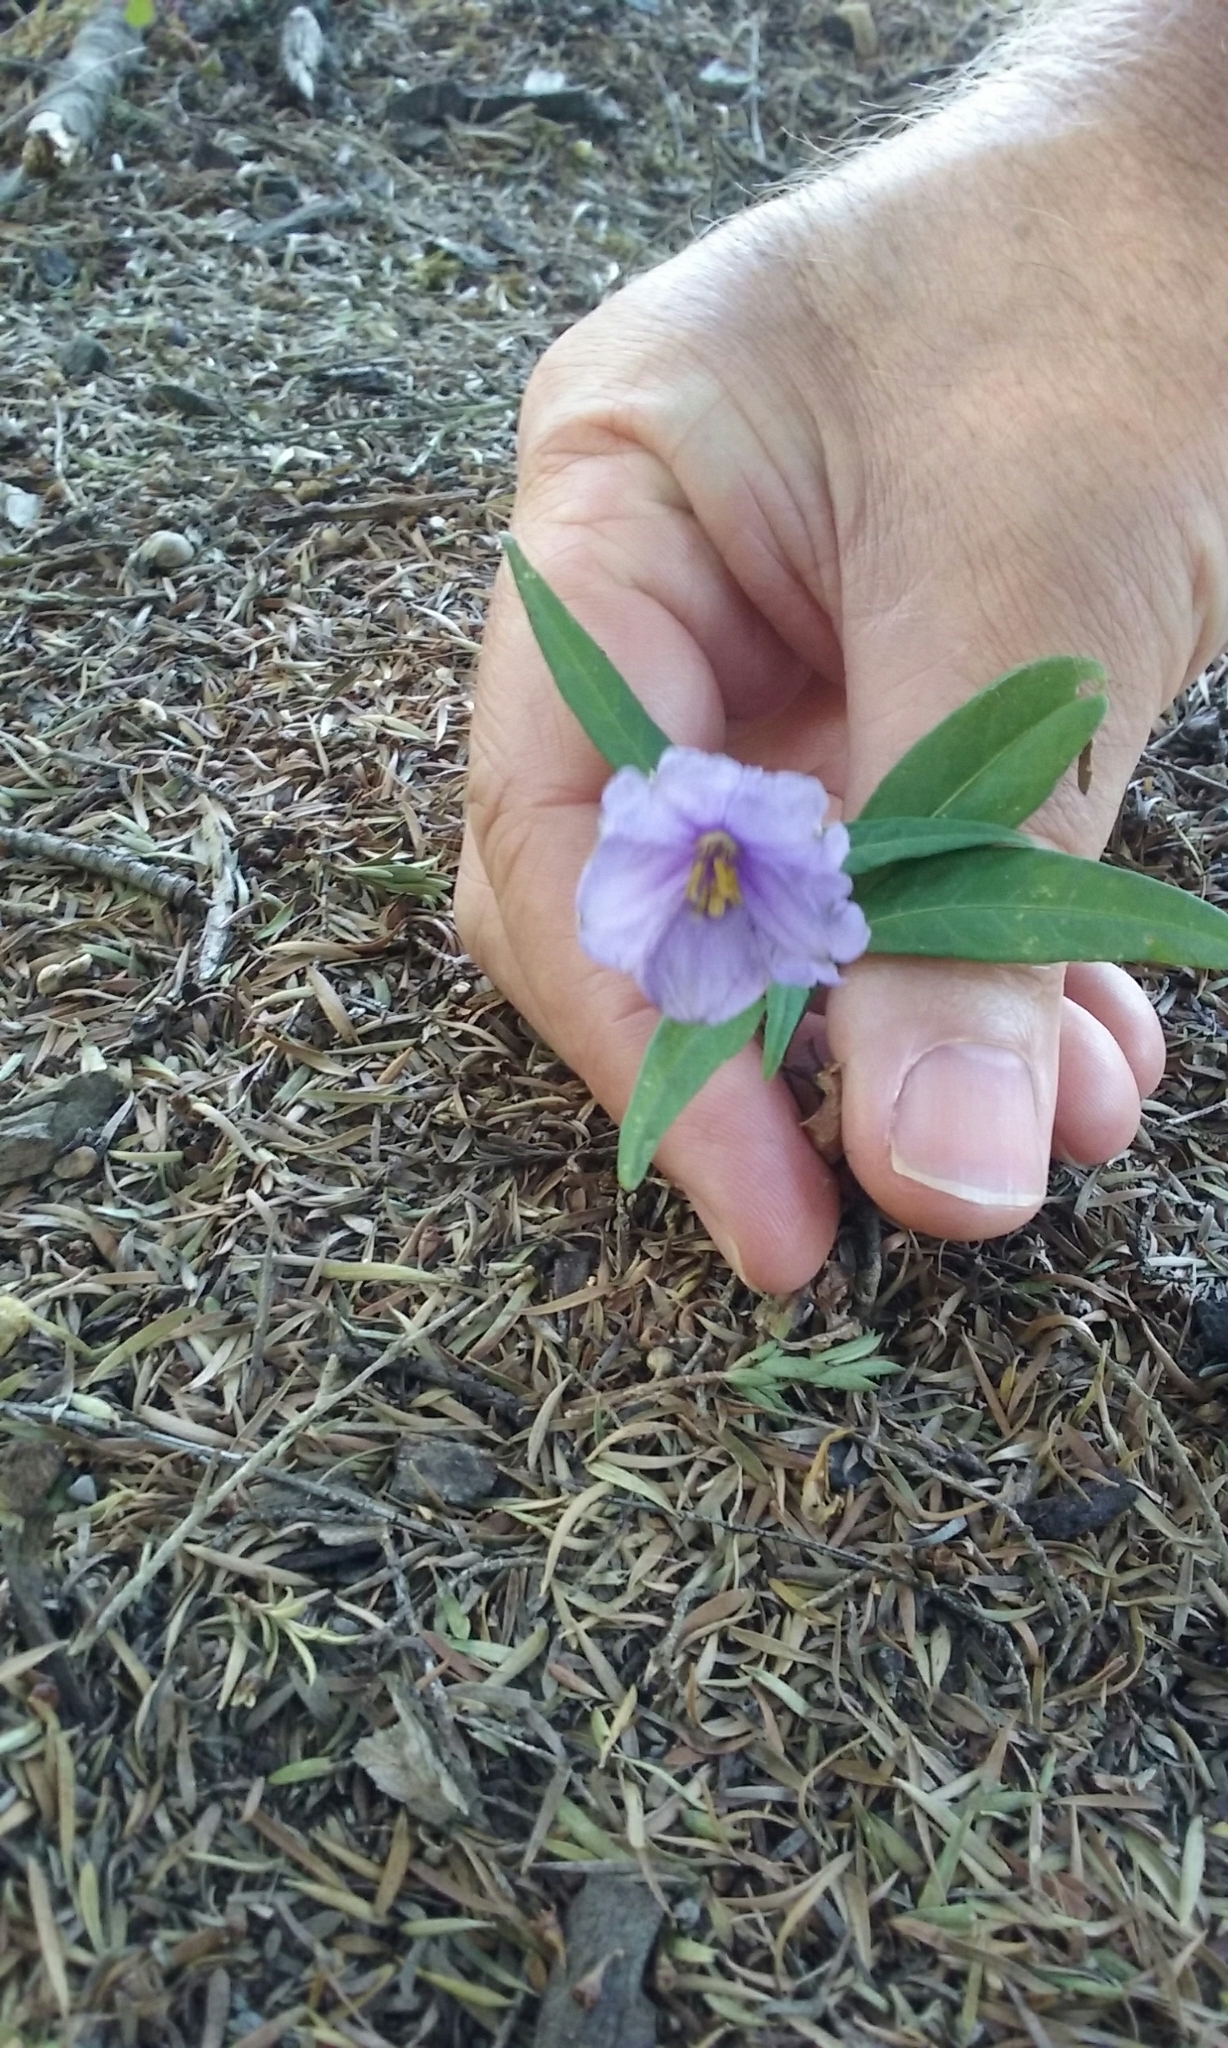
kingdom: Plantae
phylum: Tracheophyta
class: Magnoliopsida
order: Solanales
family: Solanaceae
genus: Solanum
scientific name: Solanum laciniatum
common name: Kangaroo-apple
